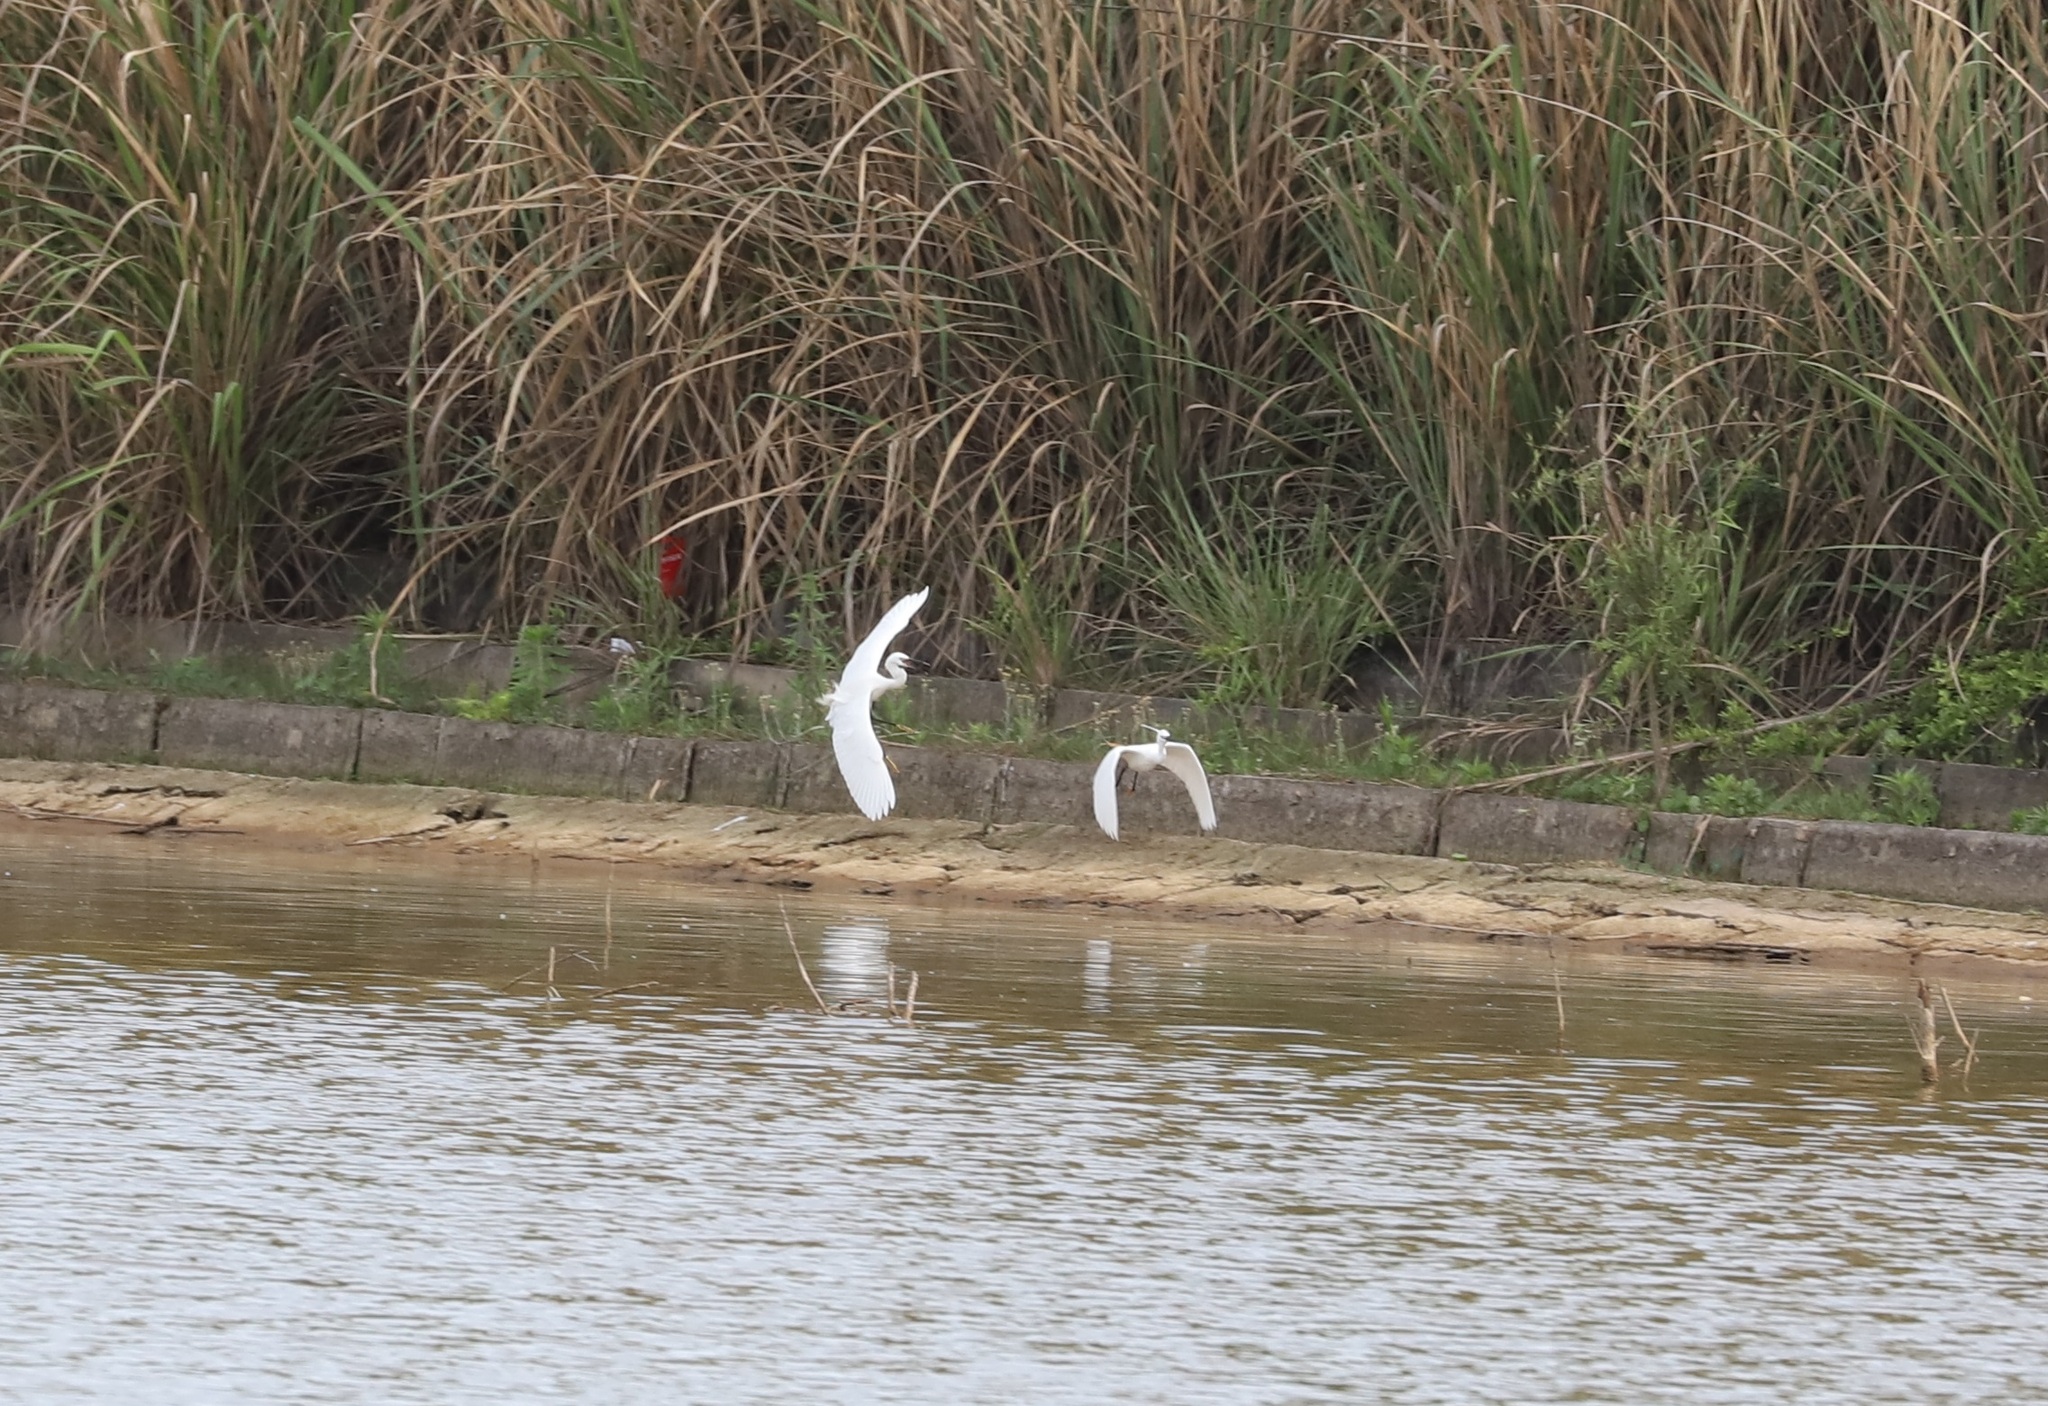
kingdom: Animalia
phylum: Chordata
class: Aves
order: Pelecaniformes
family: Ardeidae
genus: Egretta
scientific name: Egretta garzetta
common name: Little egret
